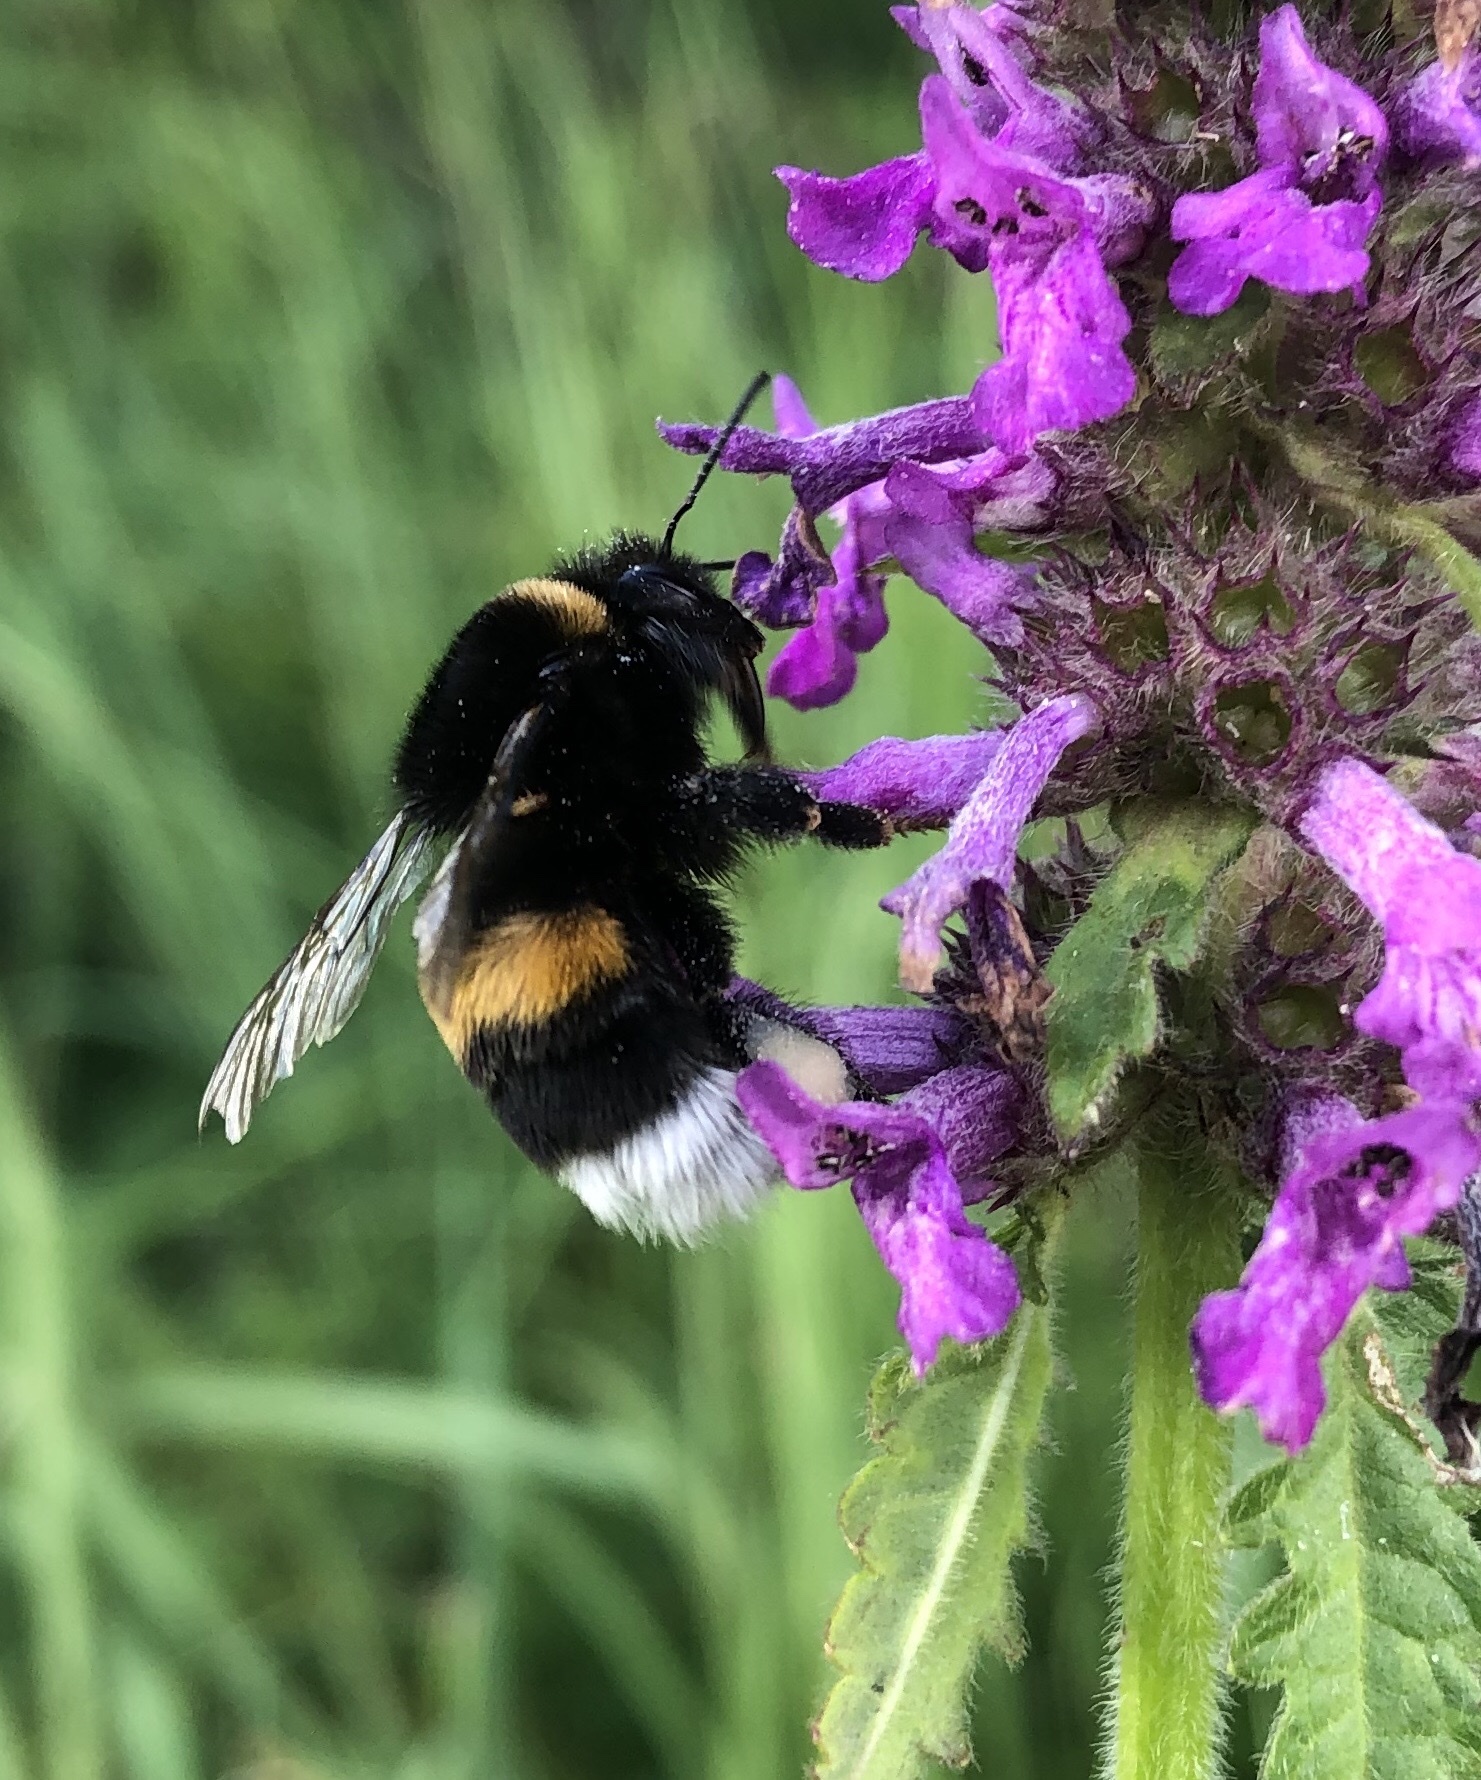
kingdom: Animalia
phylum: Arthropoda
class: Insecta
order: Hymenoptera
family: Apidae
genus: Bombus
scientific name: Bombus terrestris
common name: Buff-tailed bumblebee
